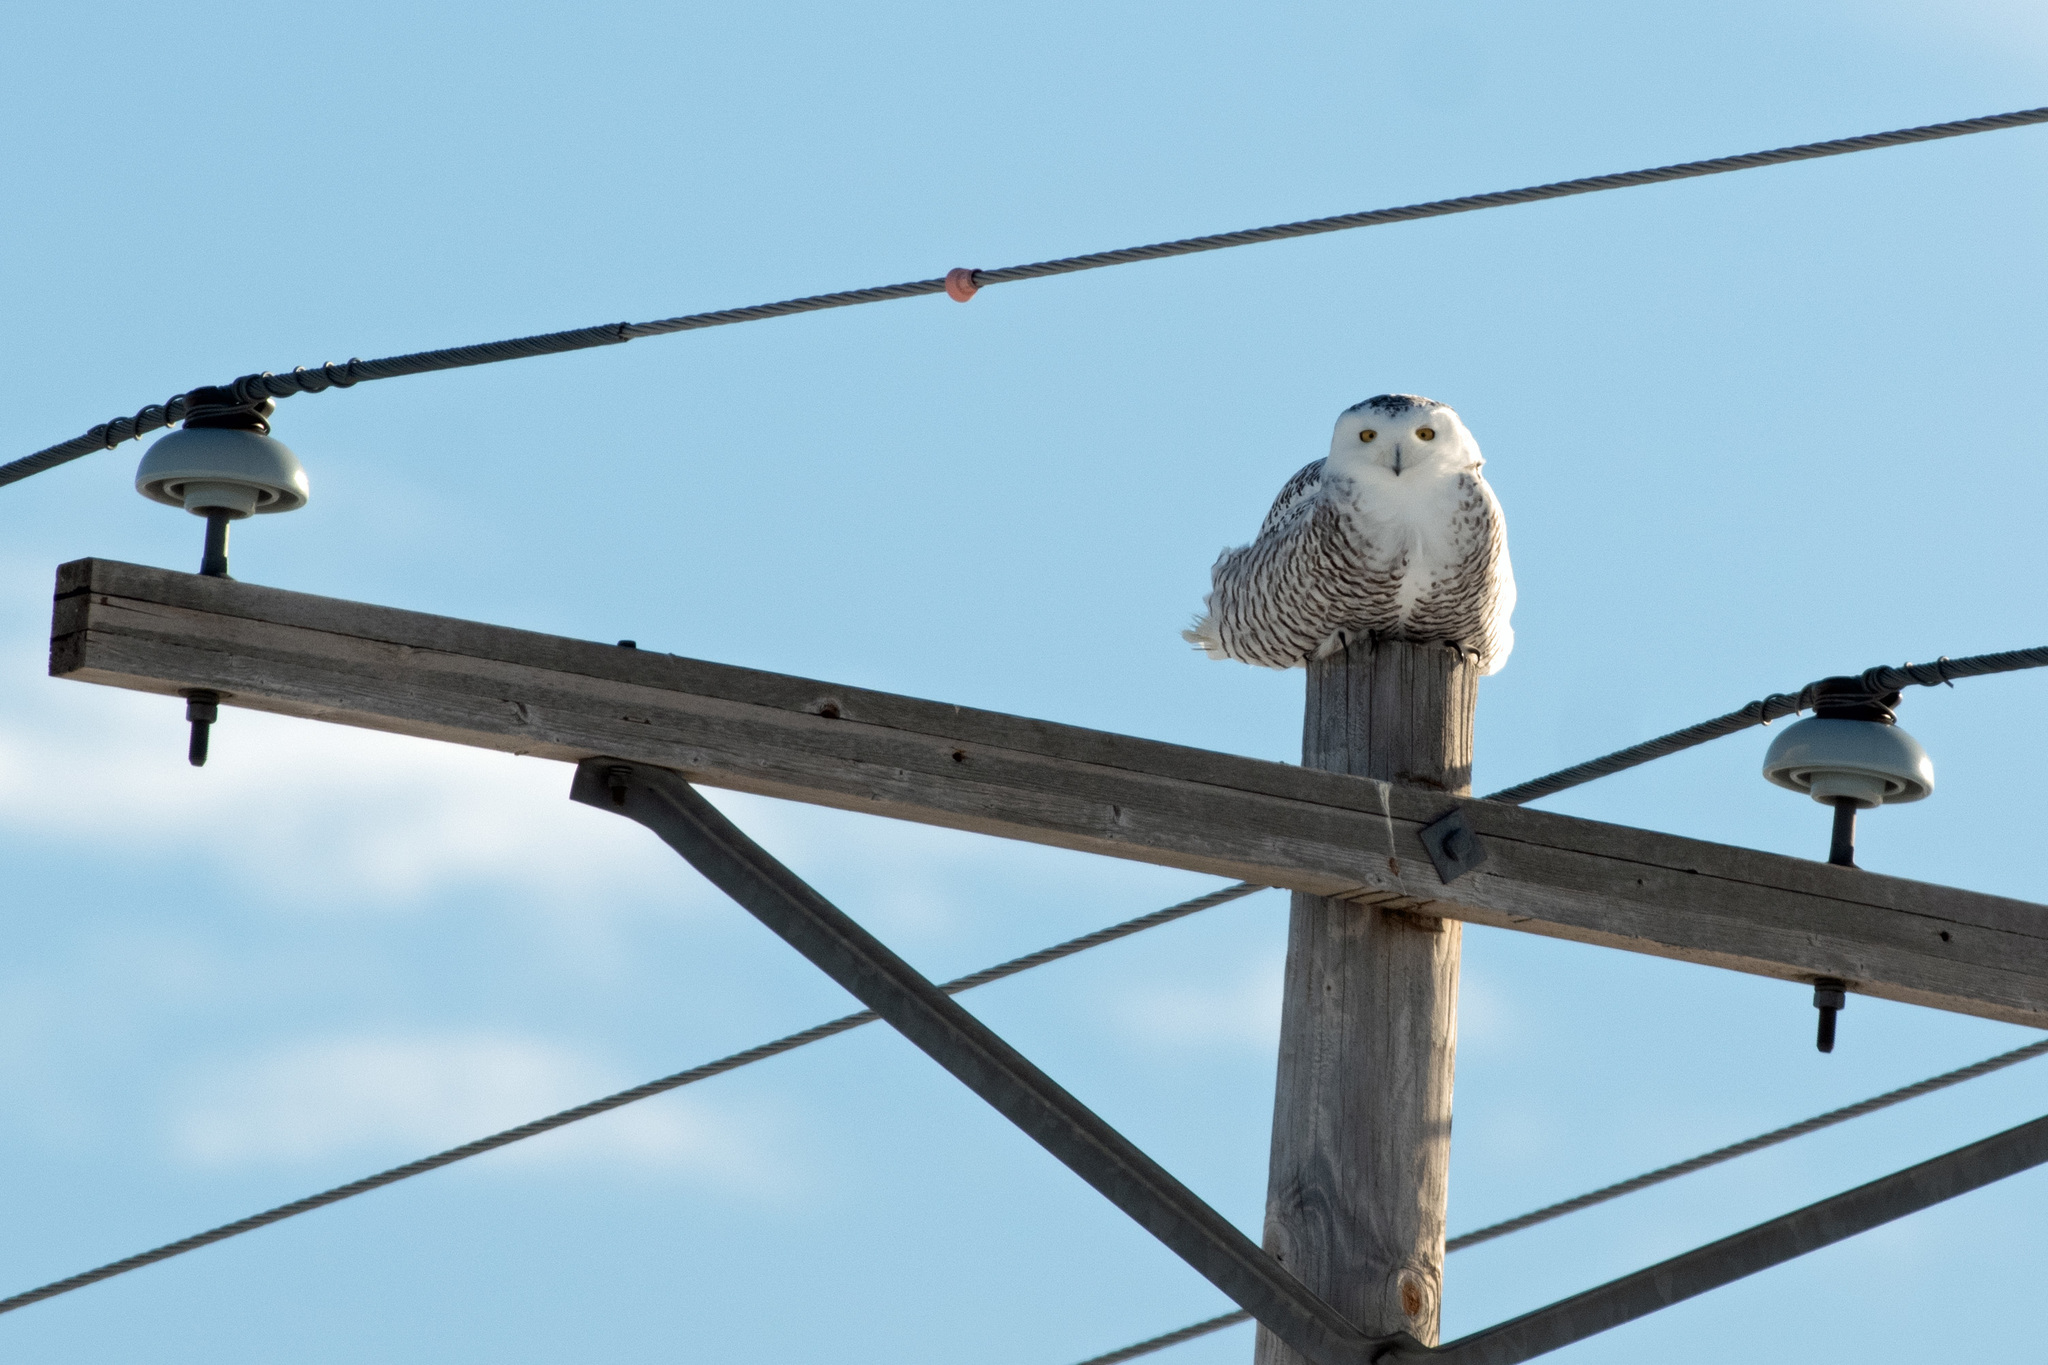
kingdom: Animalia
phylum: Chordata
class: Aves
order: Strigiformes
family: Strigidae
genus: Bubo
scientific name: Bubo scandiacus
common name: Snowy owl
